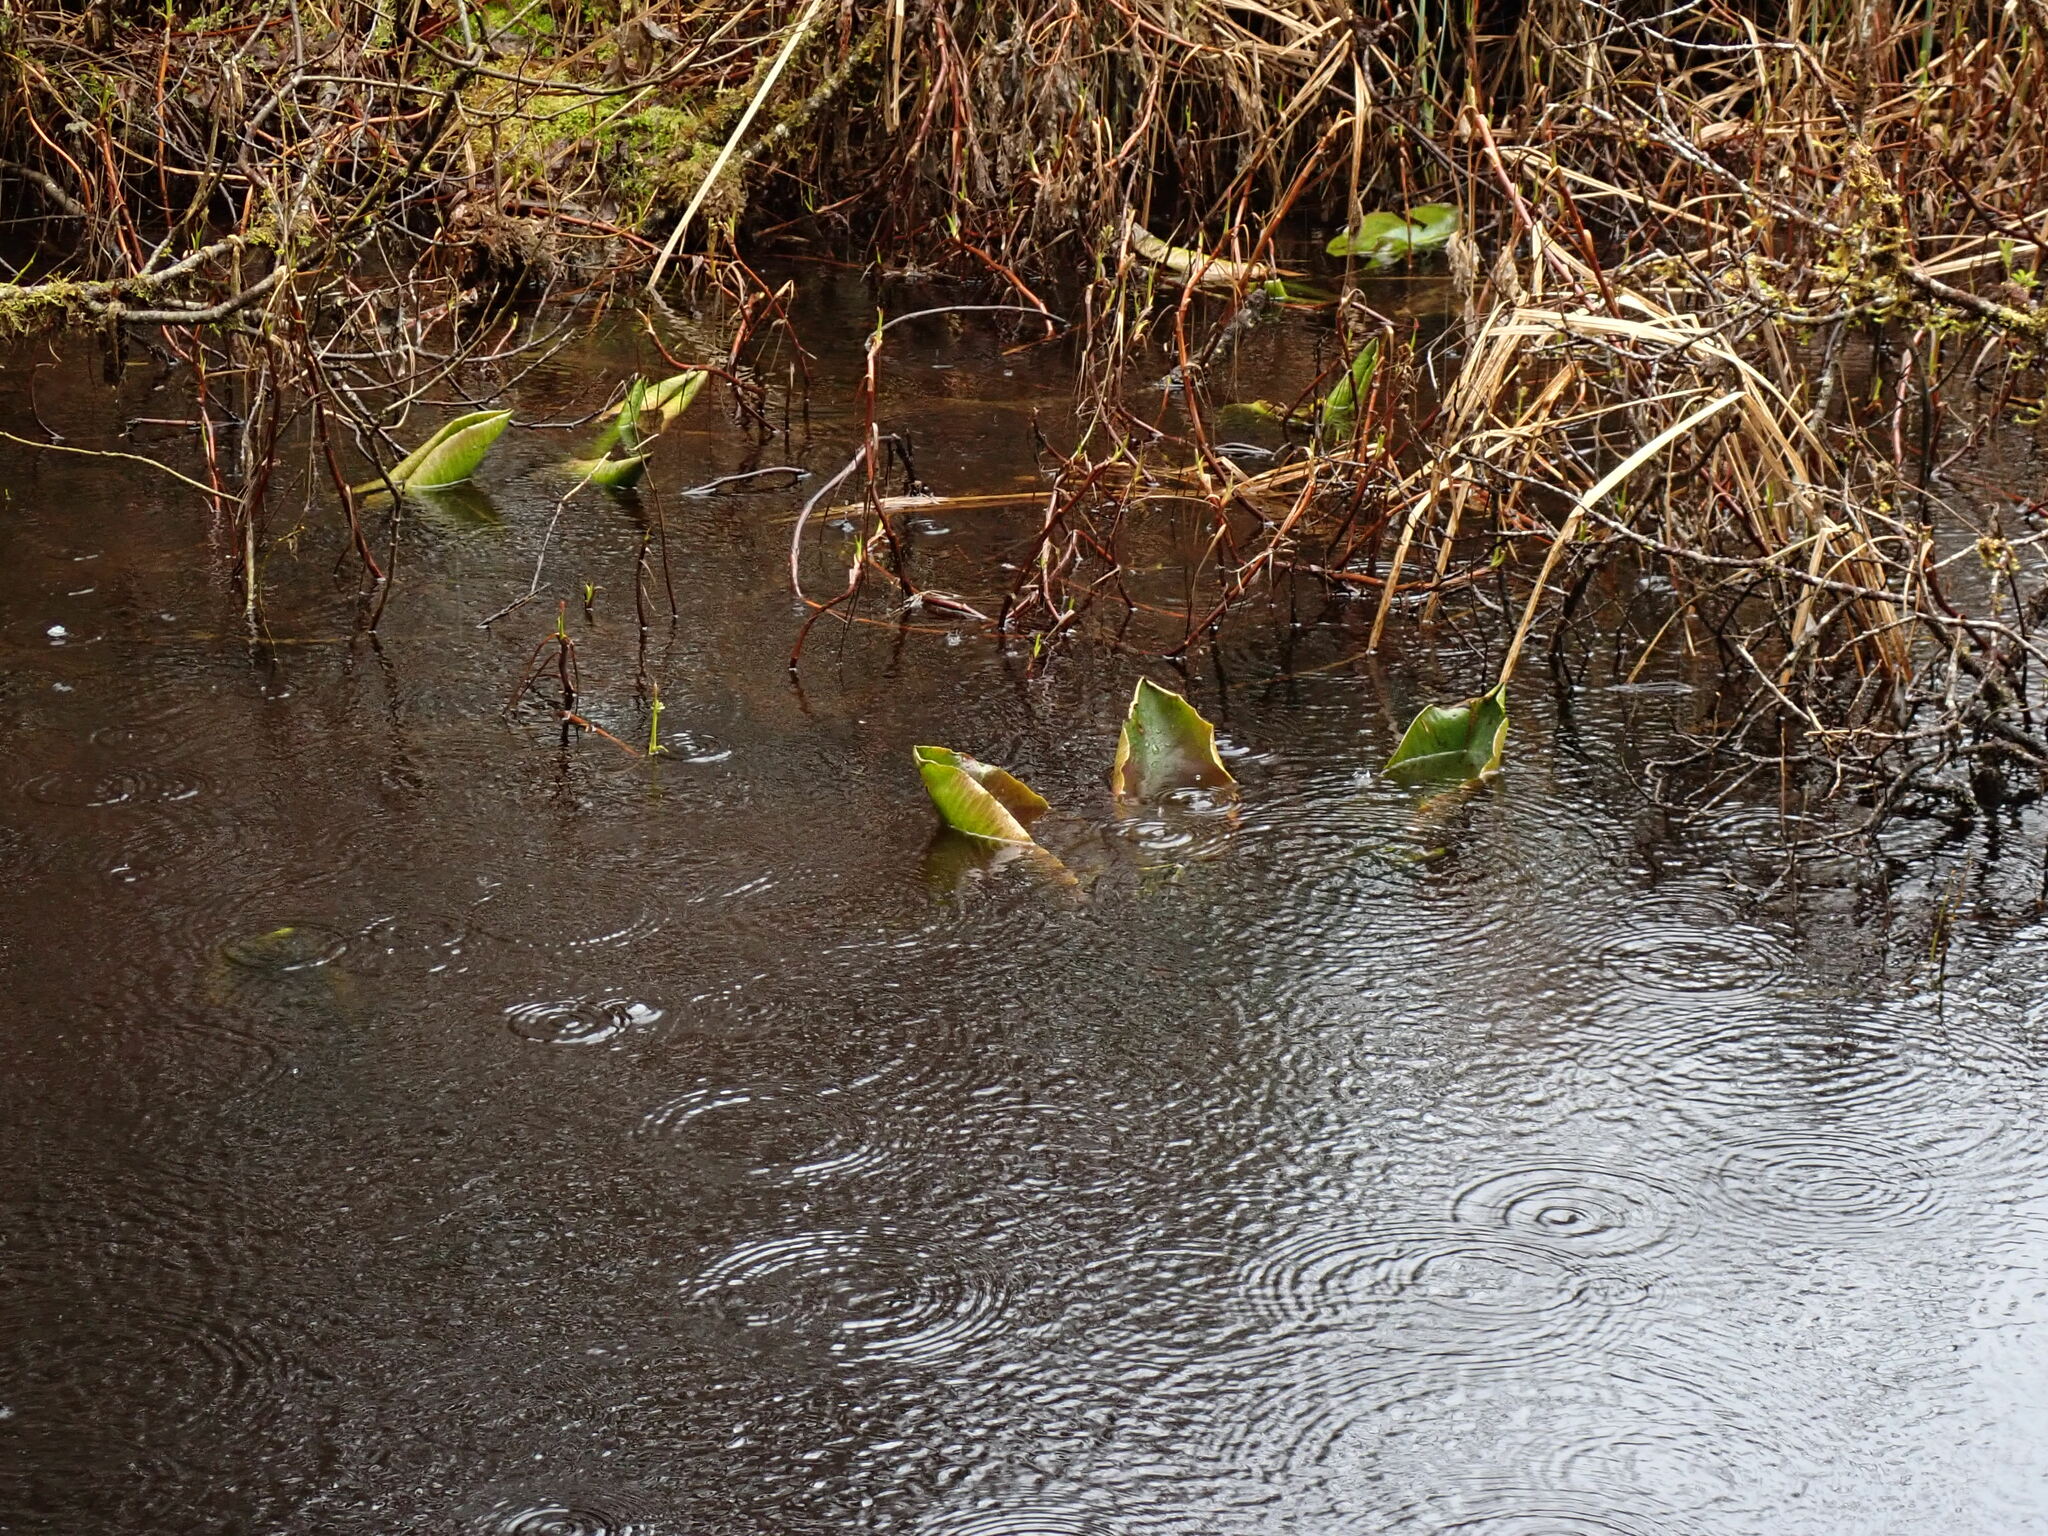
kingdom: Plantae
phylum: Tracheophyta
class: Liliopsida
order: Alismatales
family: Araceae
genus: Lysichiton
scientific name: Lysichiton americanus
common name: American skunk cabbage
